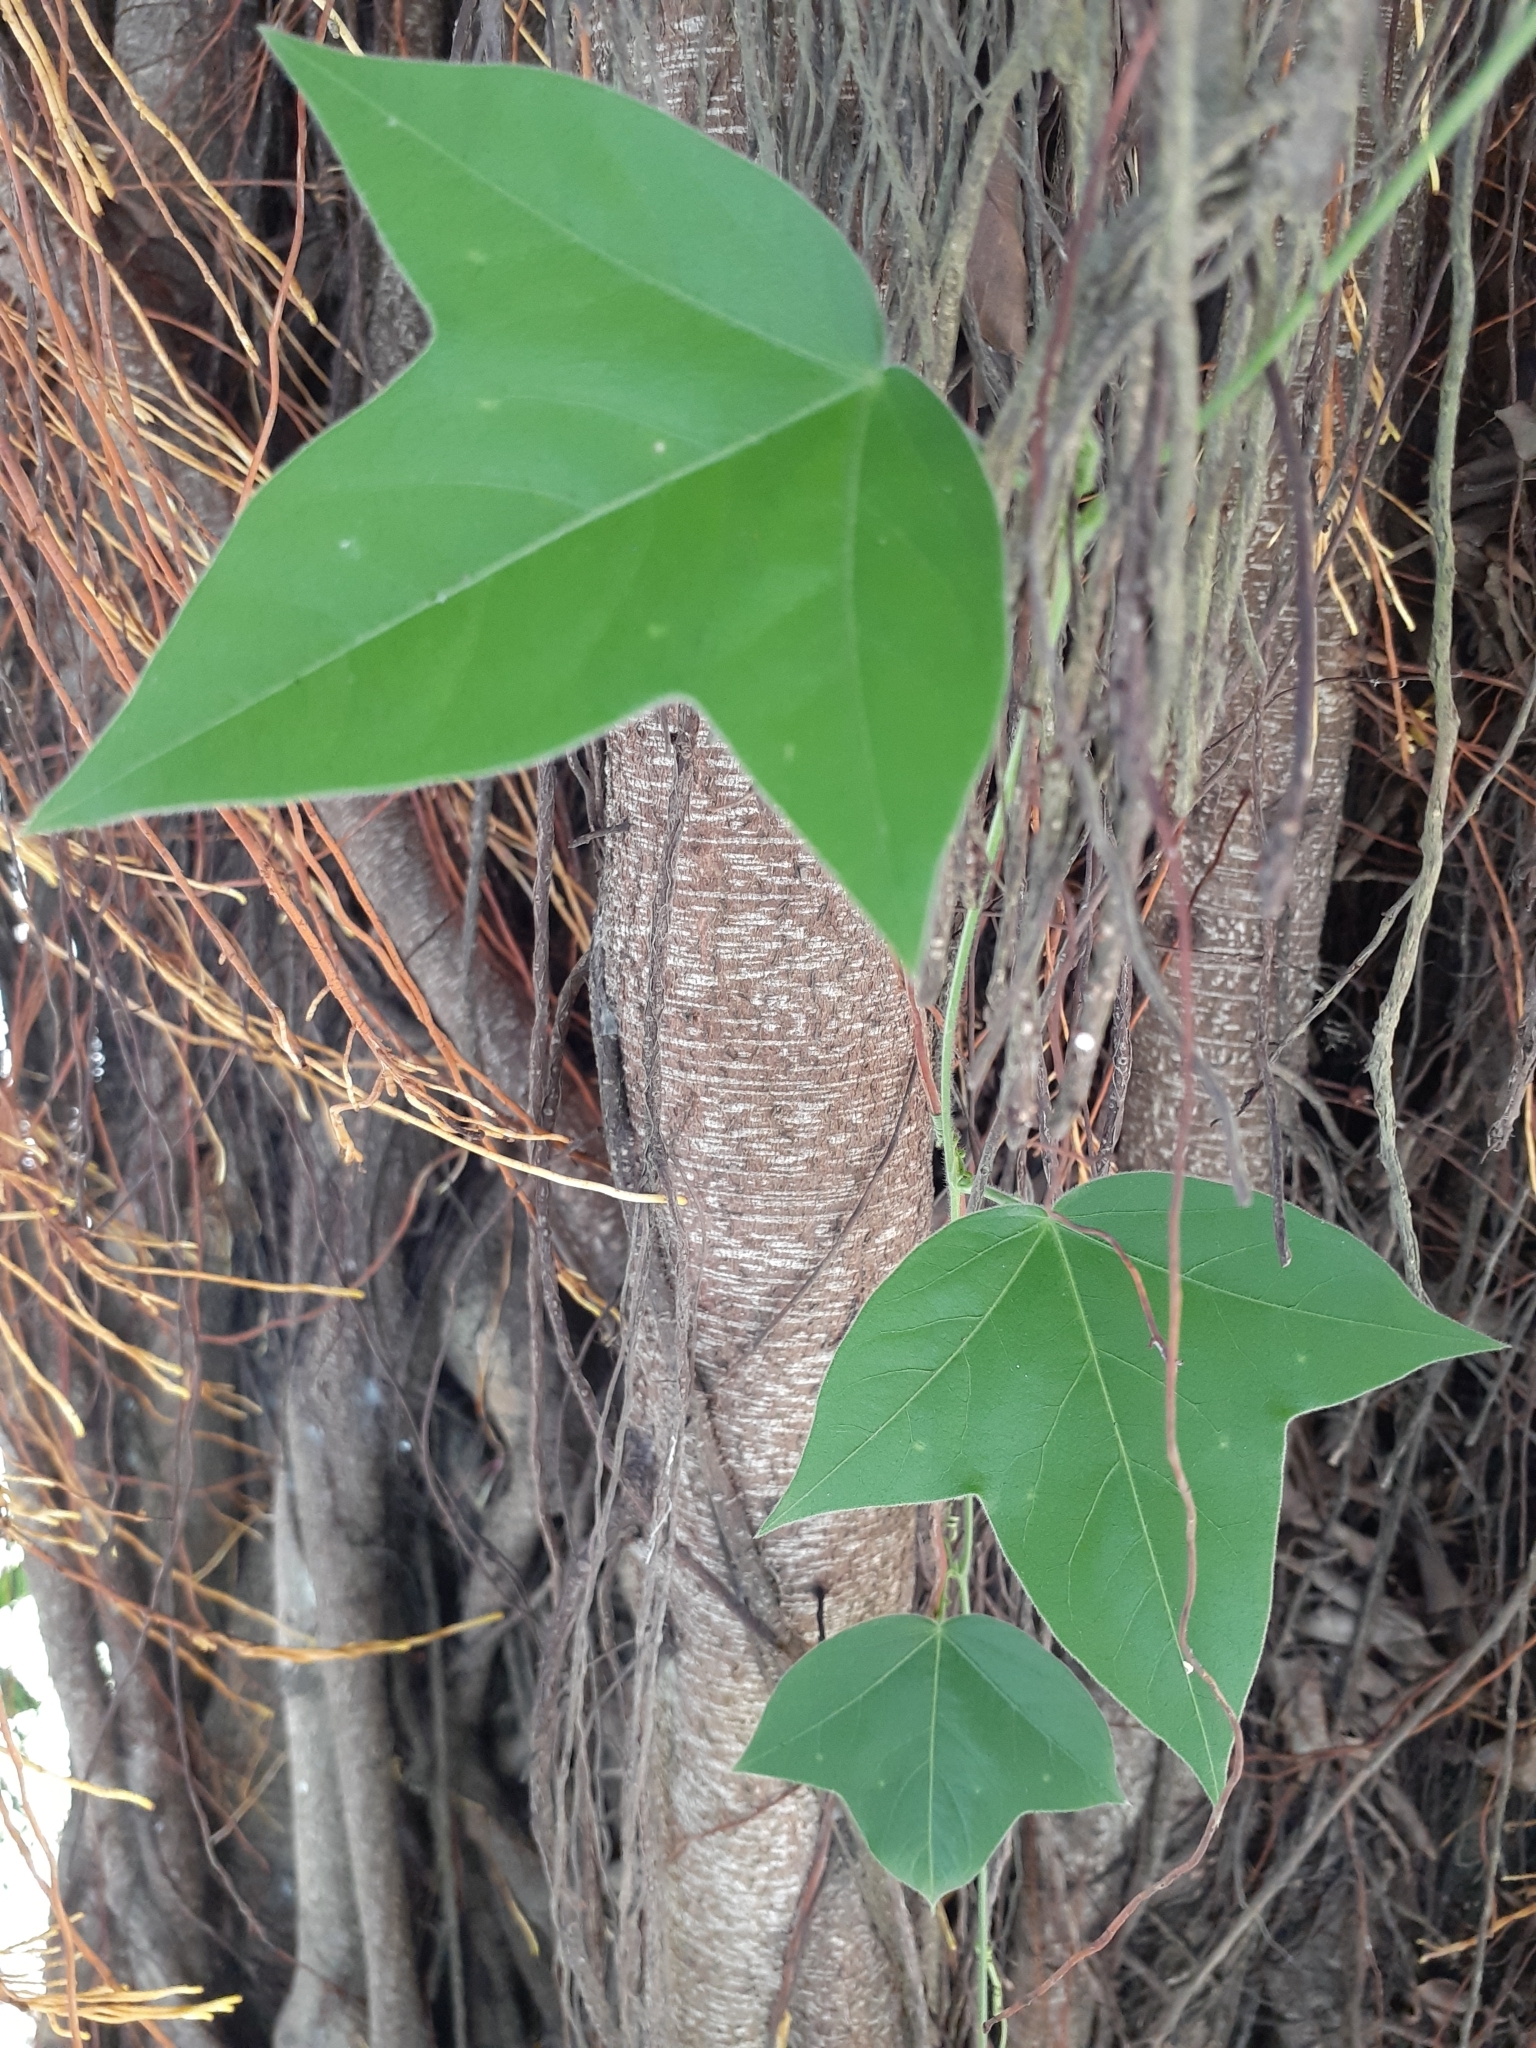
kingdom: Plantae
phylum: Tracheophyta
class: Magnoliopsida
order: Malpighiales
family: Passifloraceae
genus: Passiflora
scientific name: Passiflora suberosa
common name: Wild passionfruit
